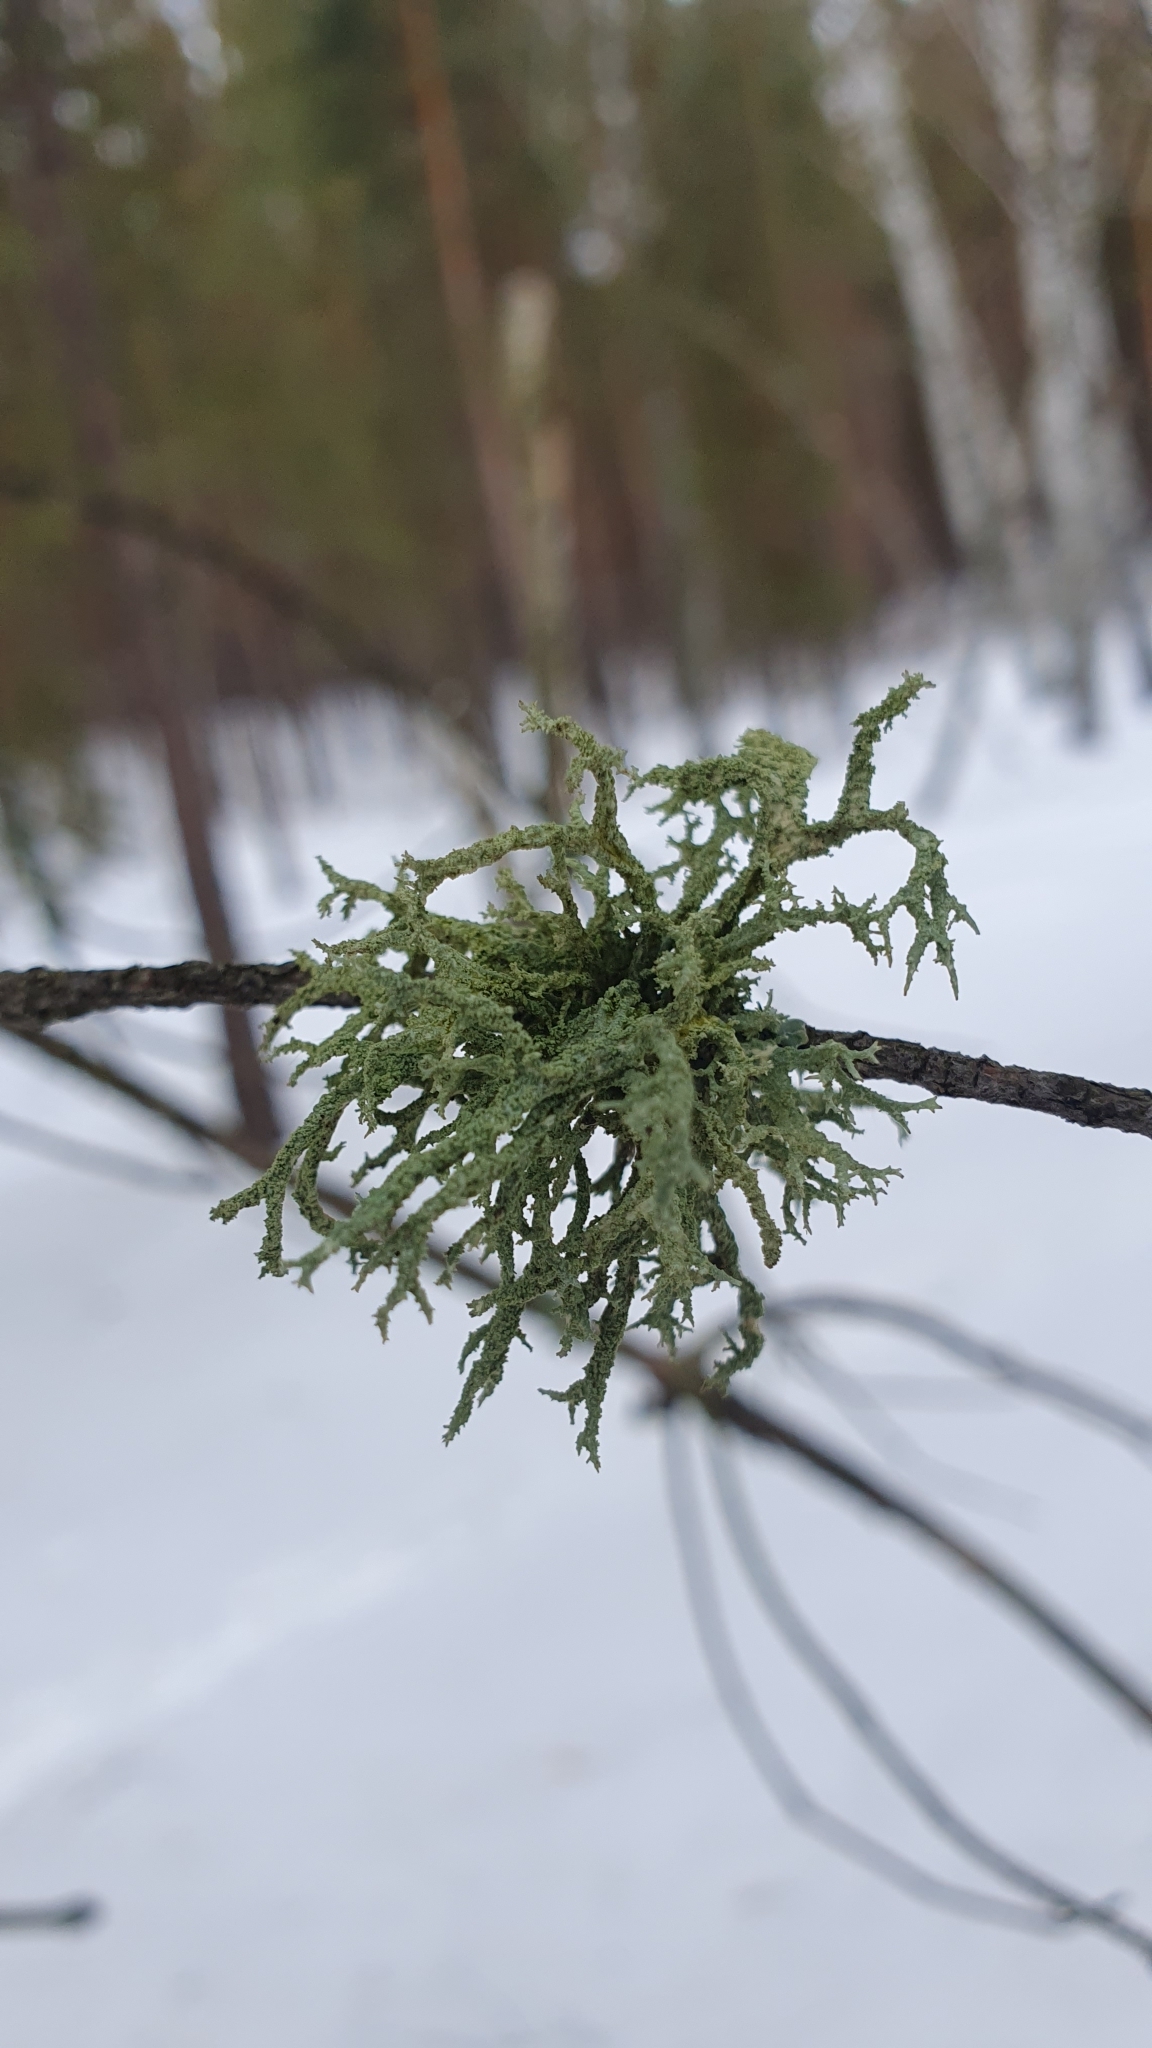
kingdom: Fungi
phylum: Ascomycota
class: Lecanoromycetes
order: Lecanorales
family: Parmeliaceae
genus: Evernia
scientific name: Evernia mesomorpha
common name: Boreal oak moss lichen
